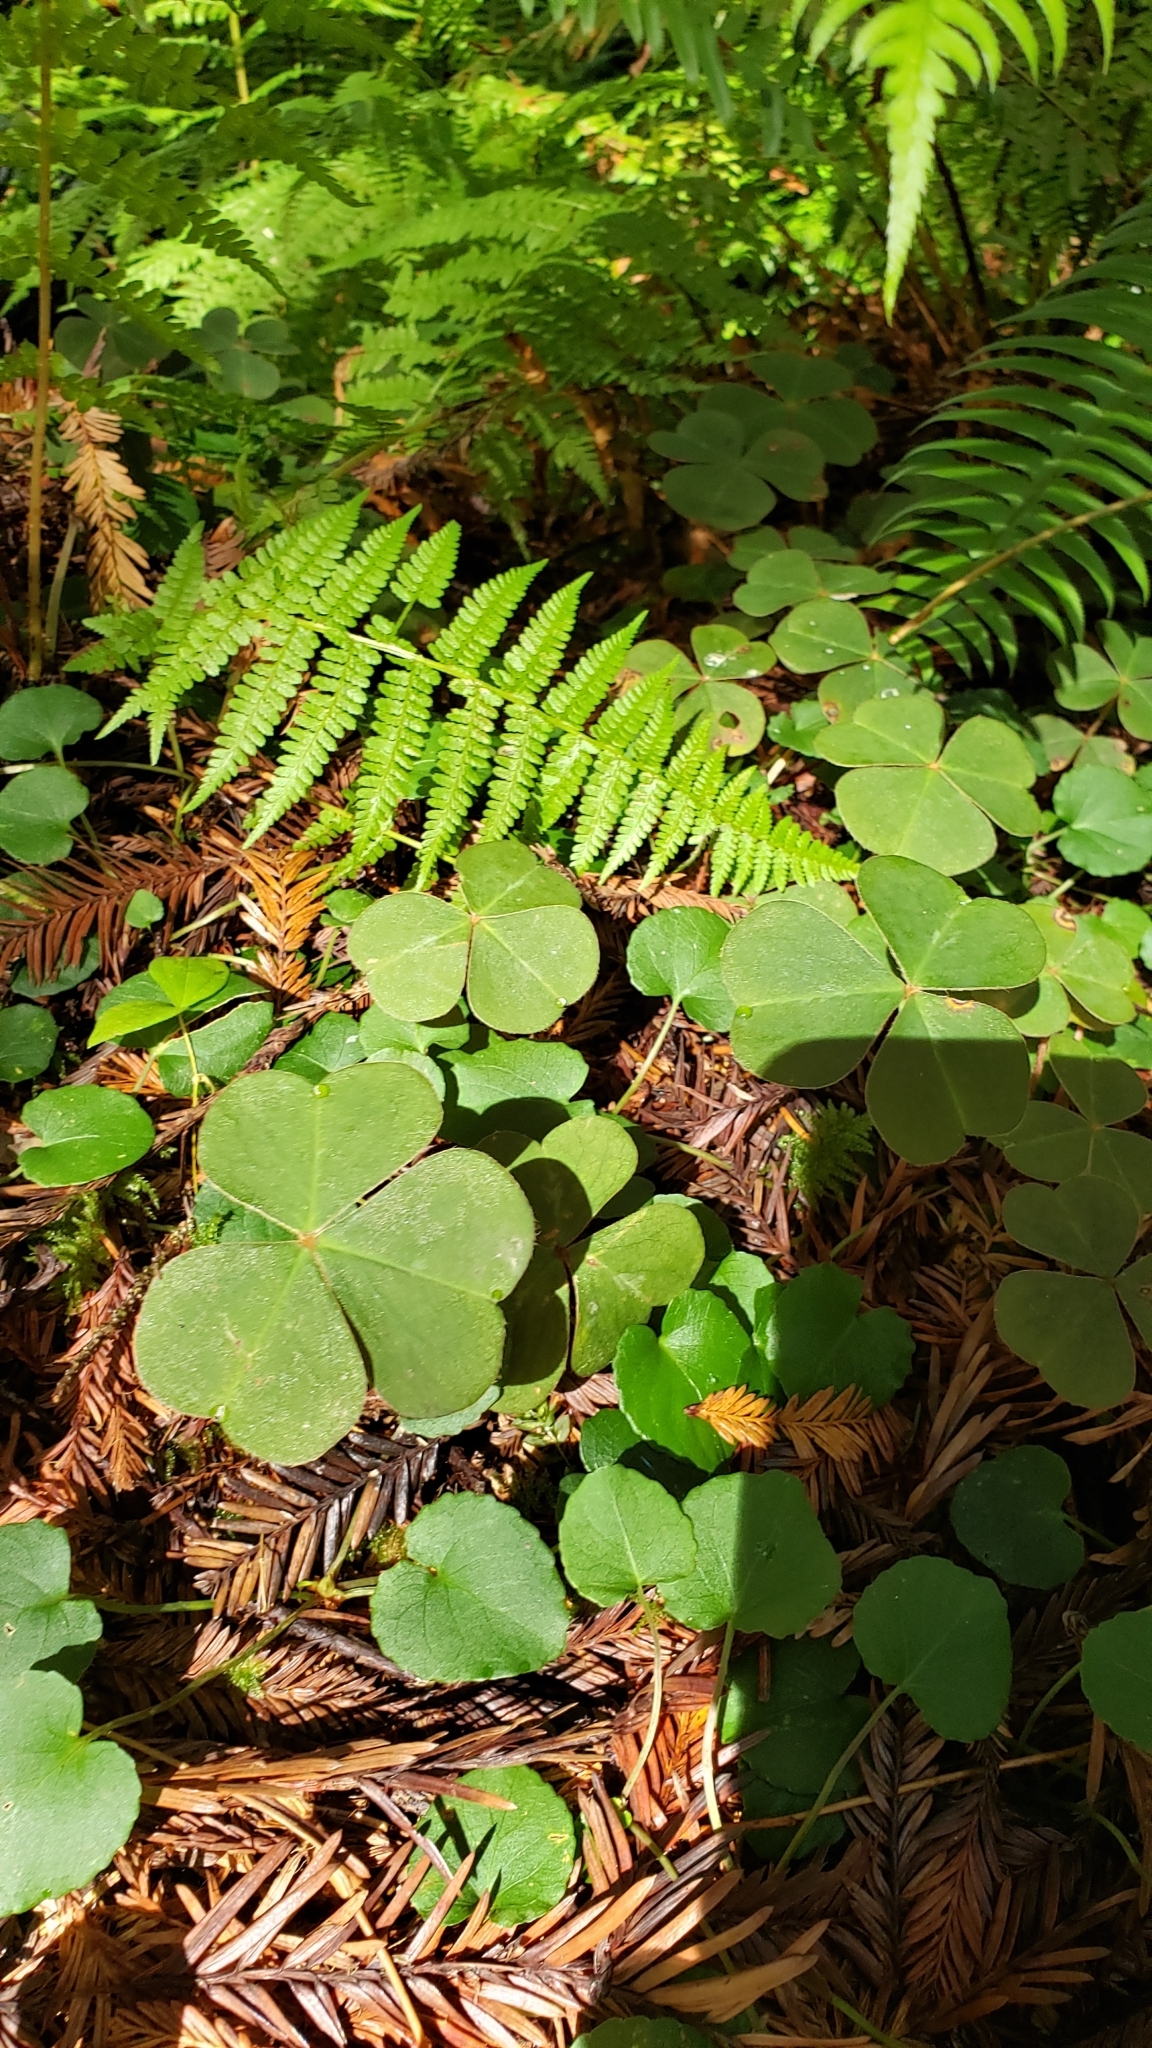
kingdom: Plantae
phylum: Tracheophyta
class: Magnoliopsida
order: Oxalidales
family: Oxalidaceae
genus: Oxalis
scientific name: Oxalis oregana
